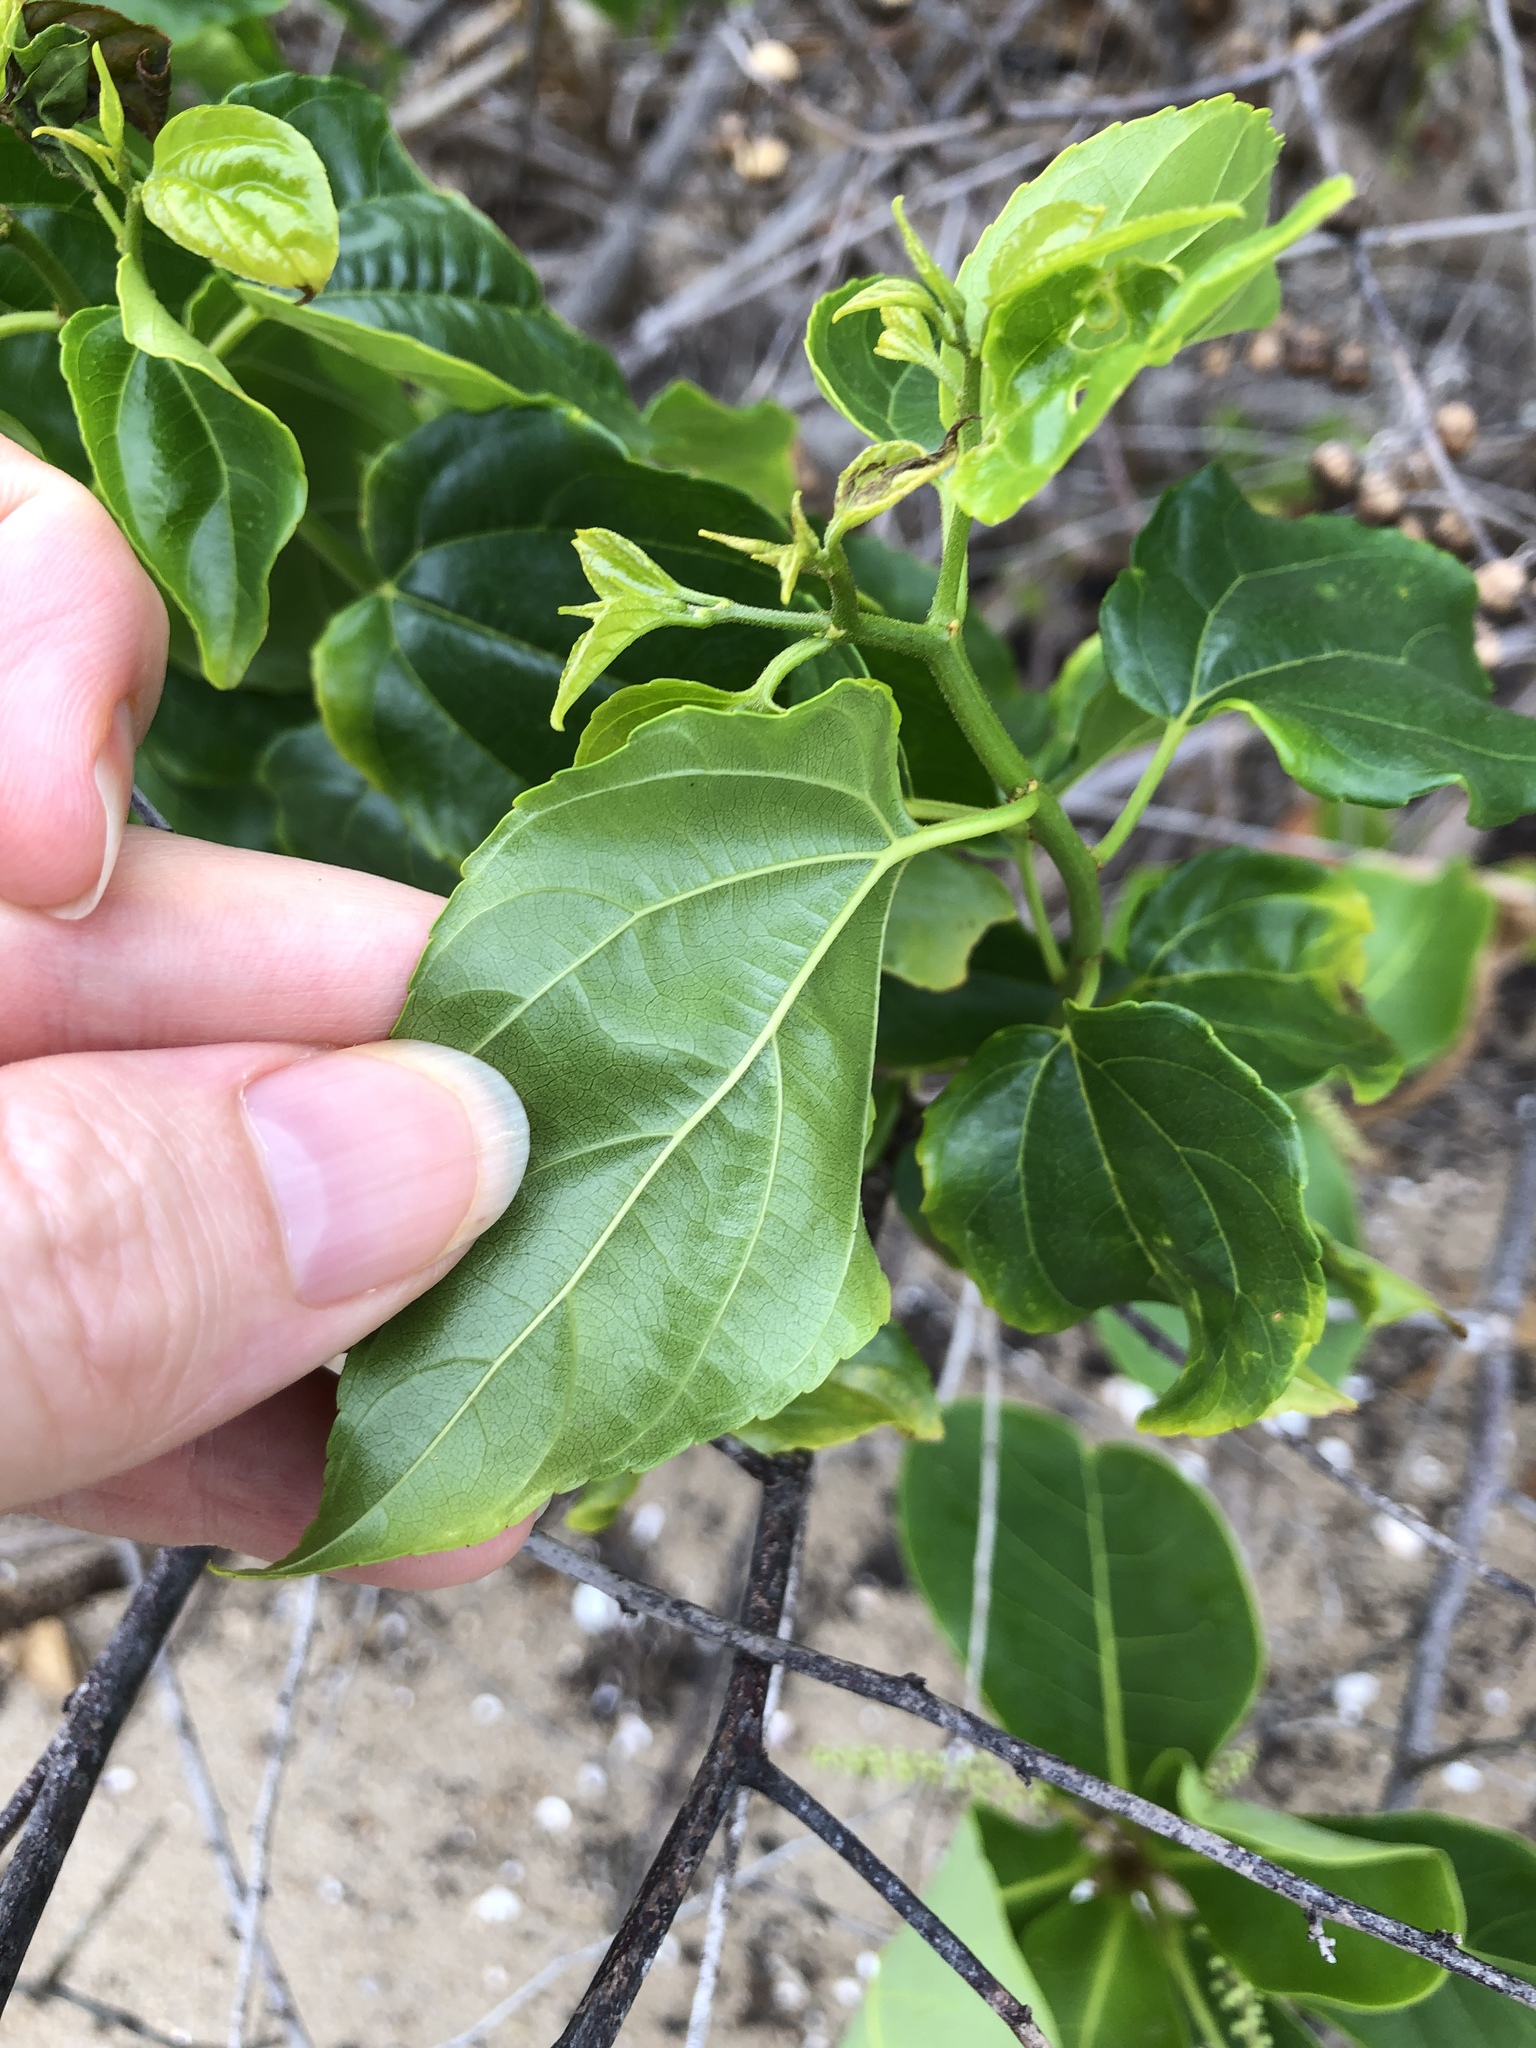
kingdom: Plantae
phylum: Tracheophyta
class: Magnoliopsida
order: Rosales
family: Rhamnaceae
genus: Colubrina
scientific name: Colubrina asiatica
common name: Asian nakedwood
